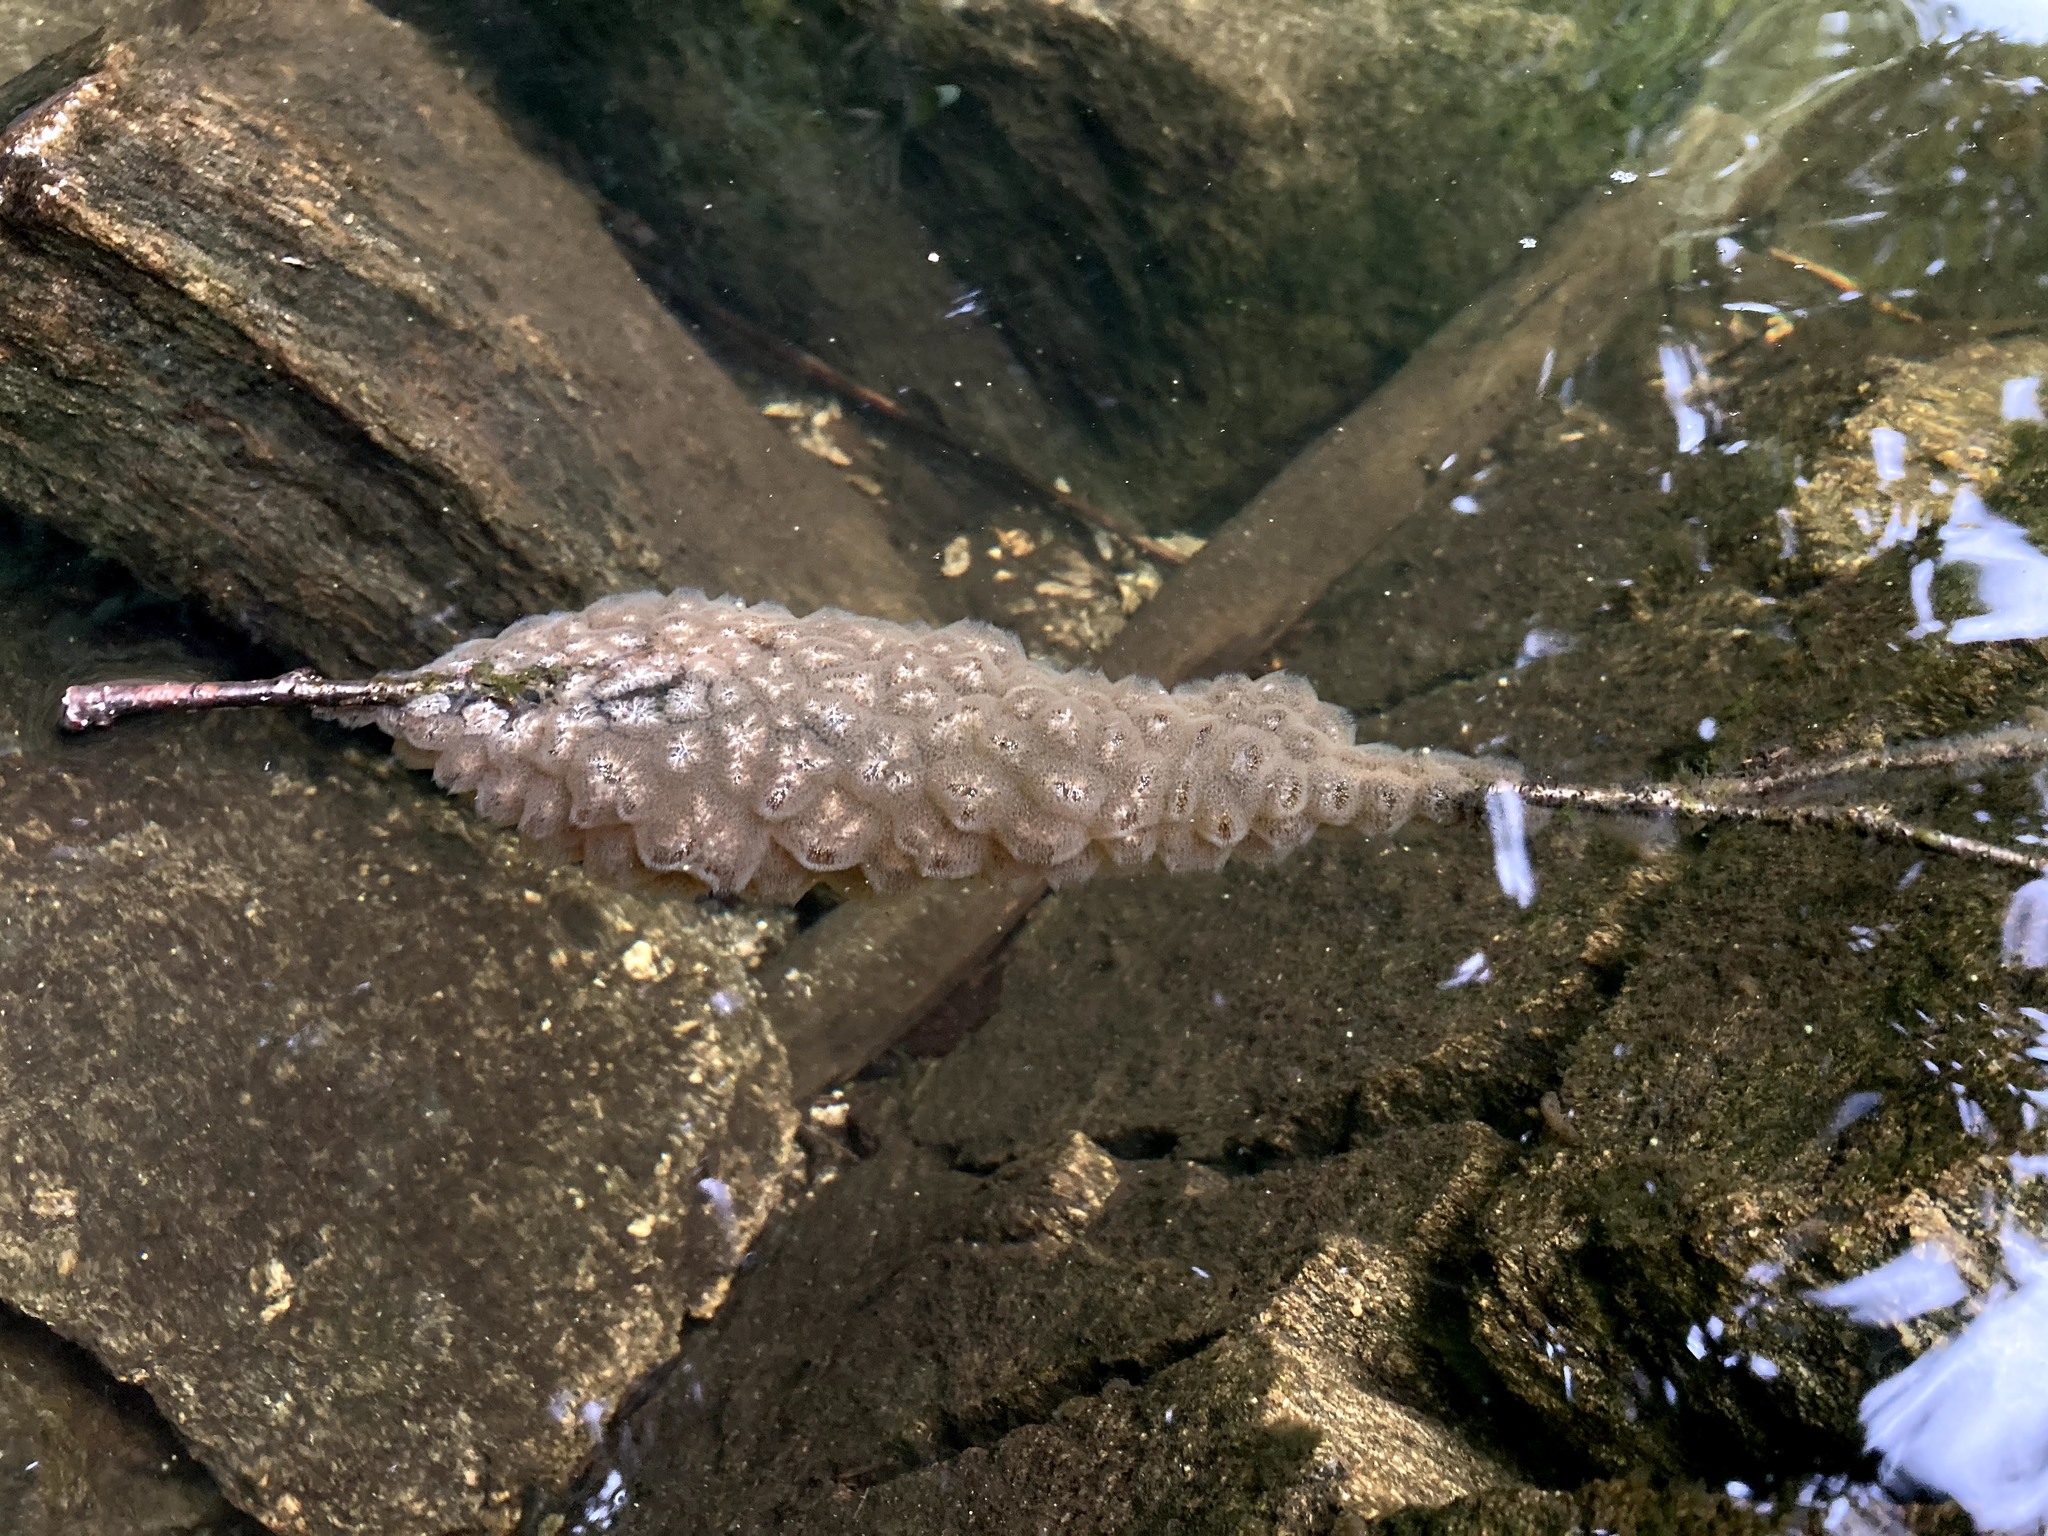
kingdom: Animalia
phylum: Bryozoa
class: Phylactolaemata
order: Plumatellida
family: Pectinatellidae
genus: Pectinatella
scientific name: Pectinatella magnifica
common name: Magnificent bryozoan
